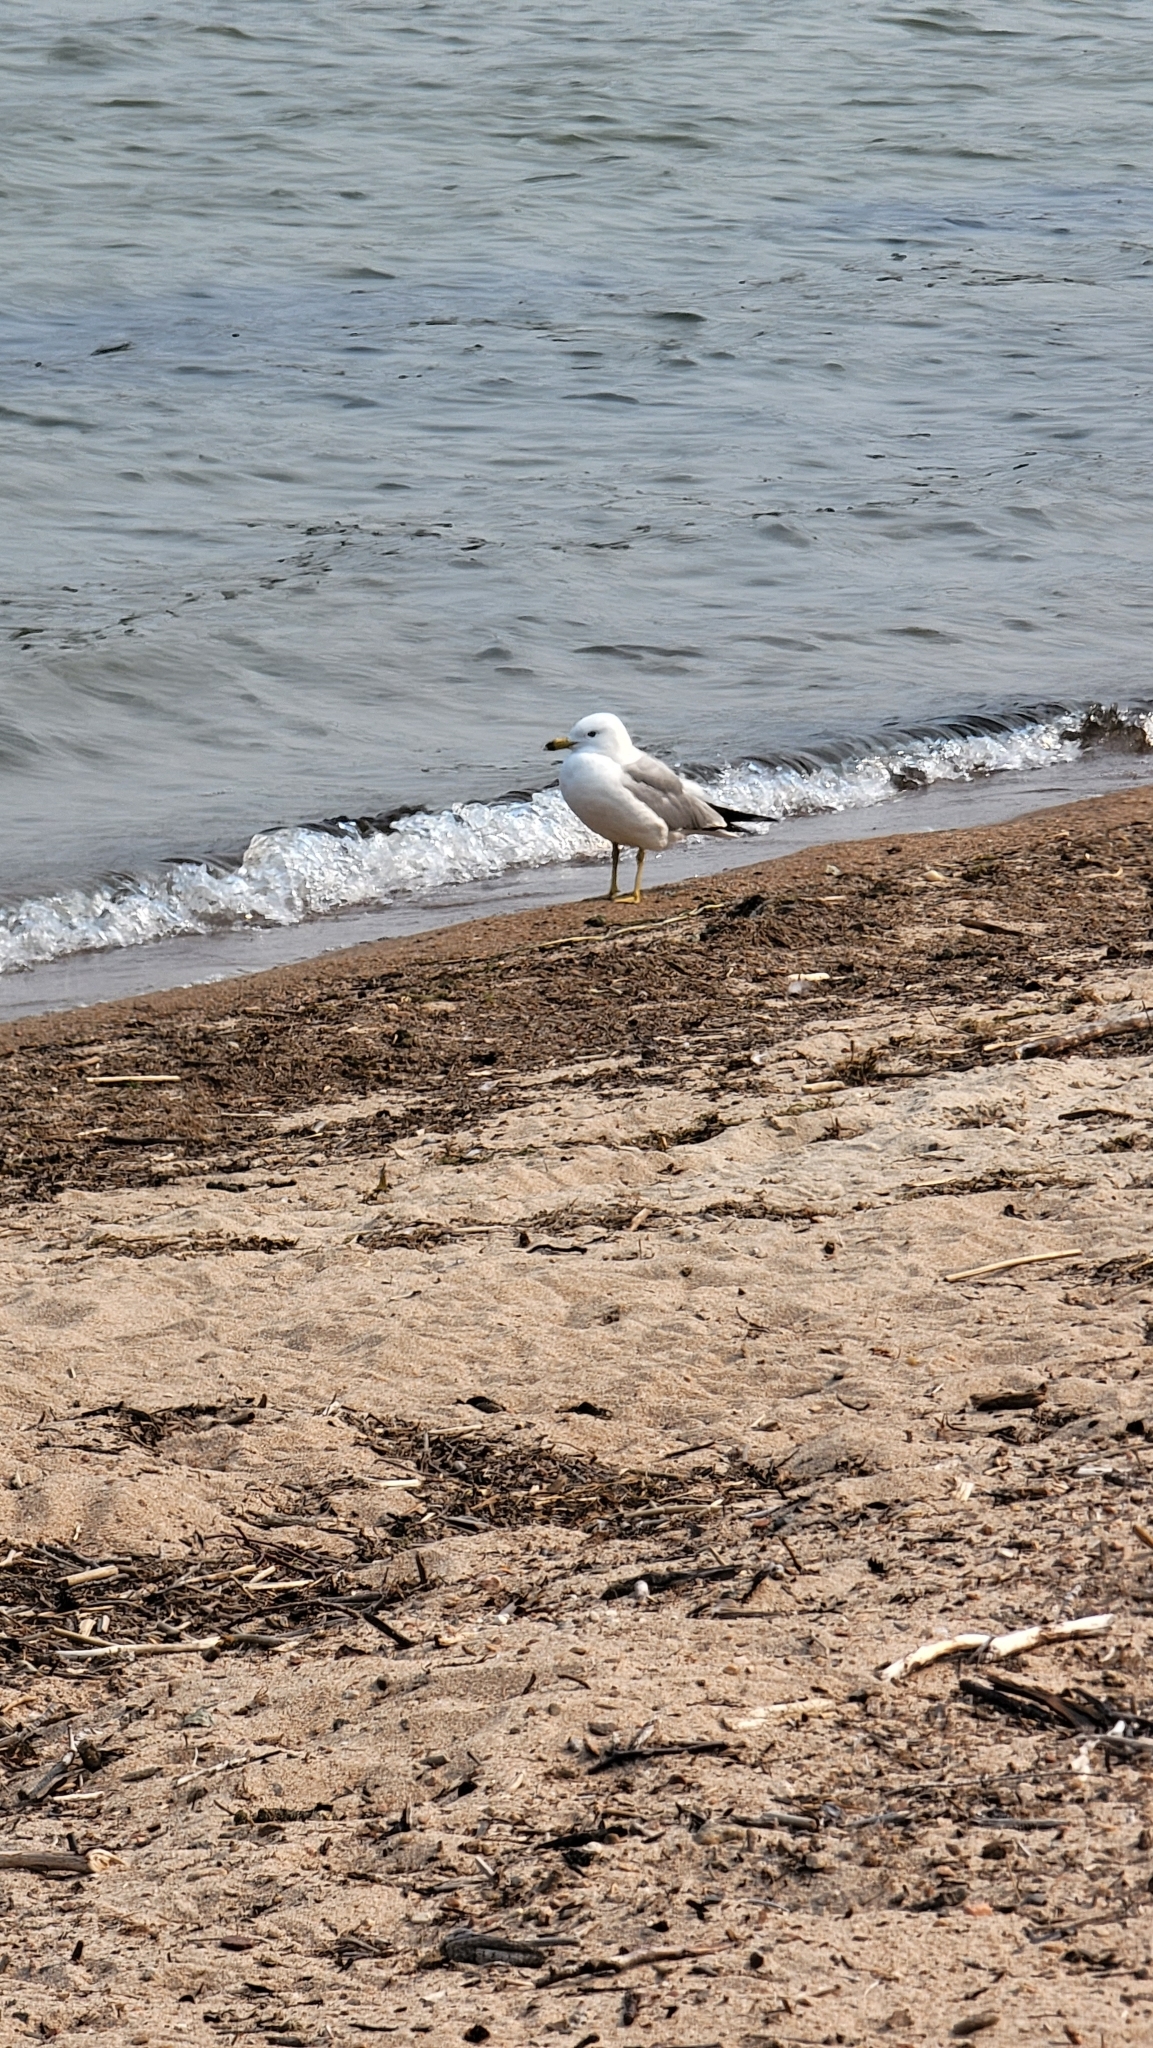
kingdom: Animalia
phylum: Chordata
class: Aves
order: Charadriiformes
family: Laridae
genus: Larus
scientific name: Larus delawarensis
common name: Ring-billed gull
